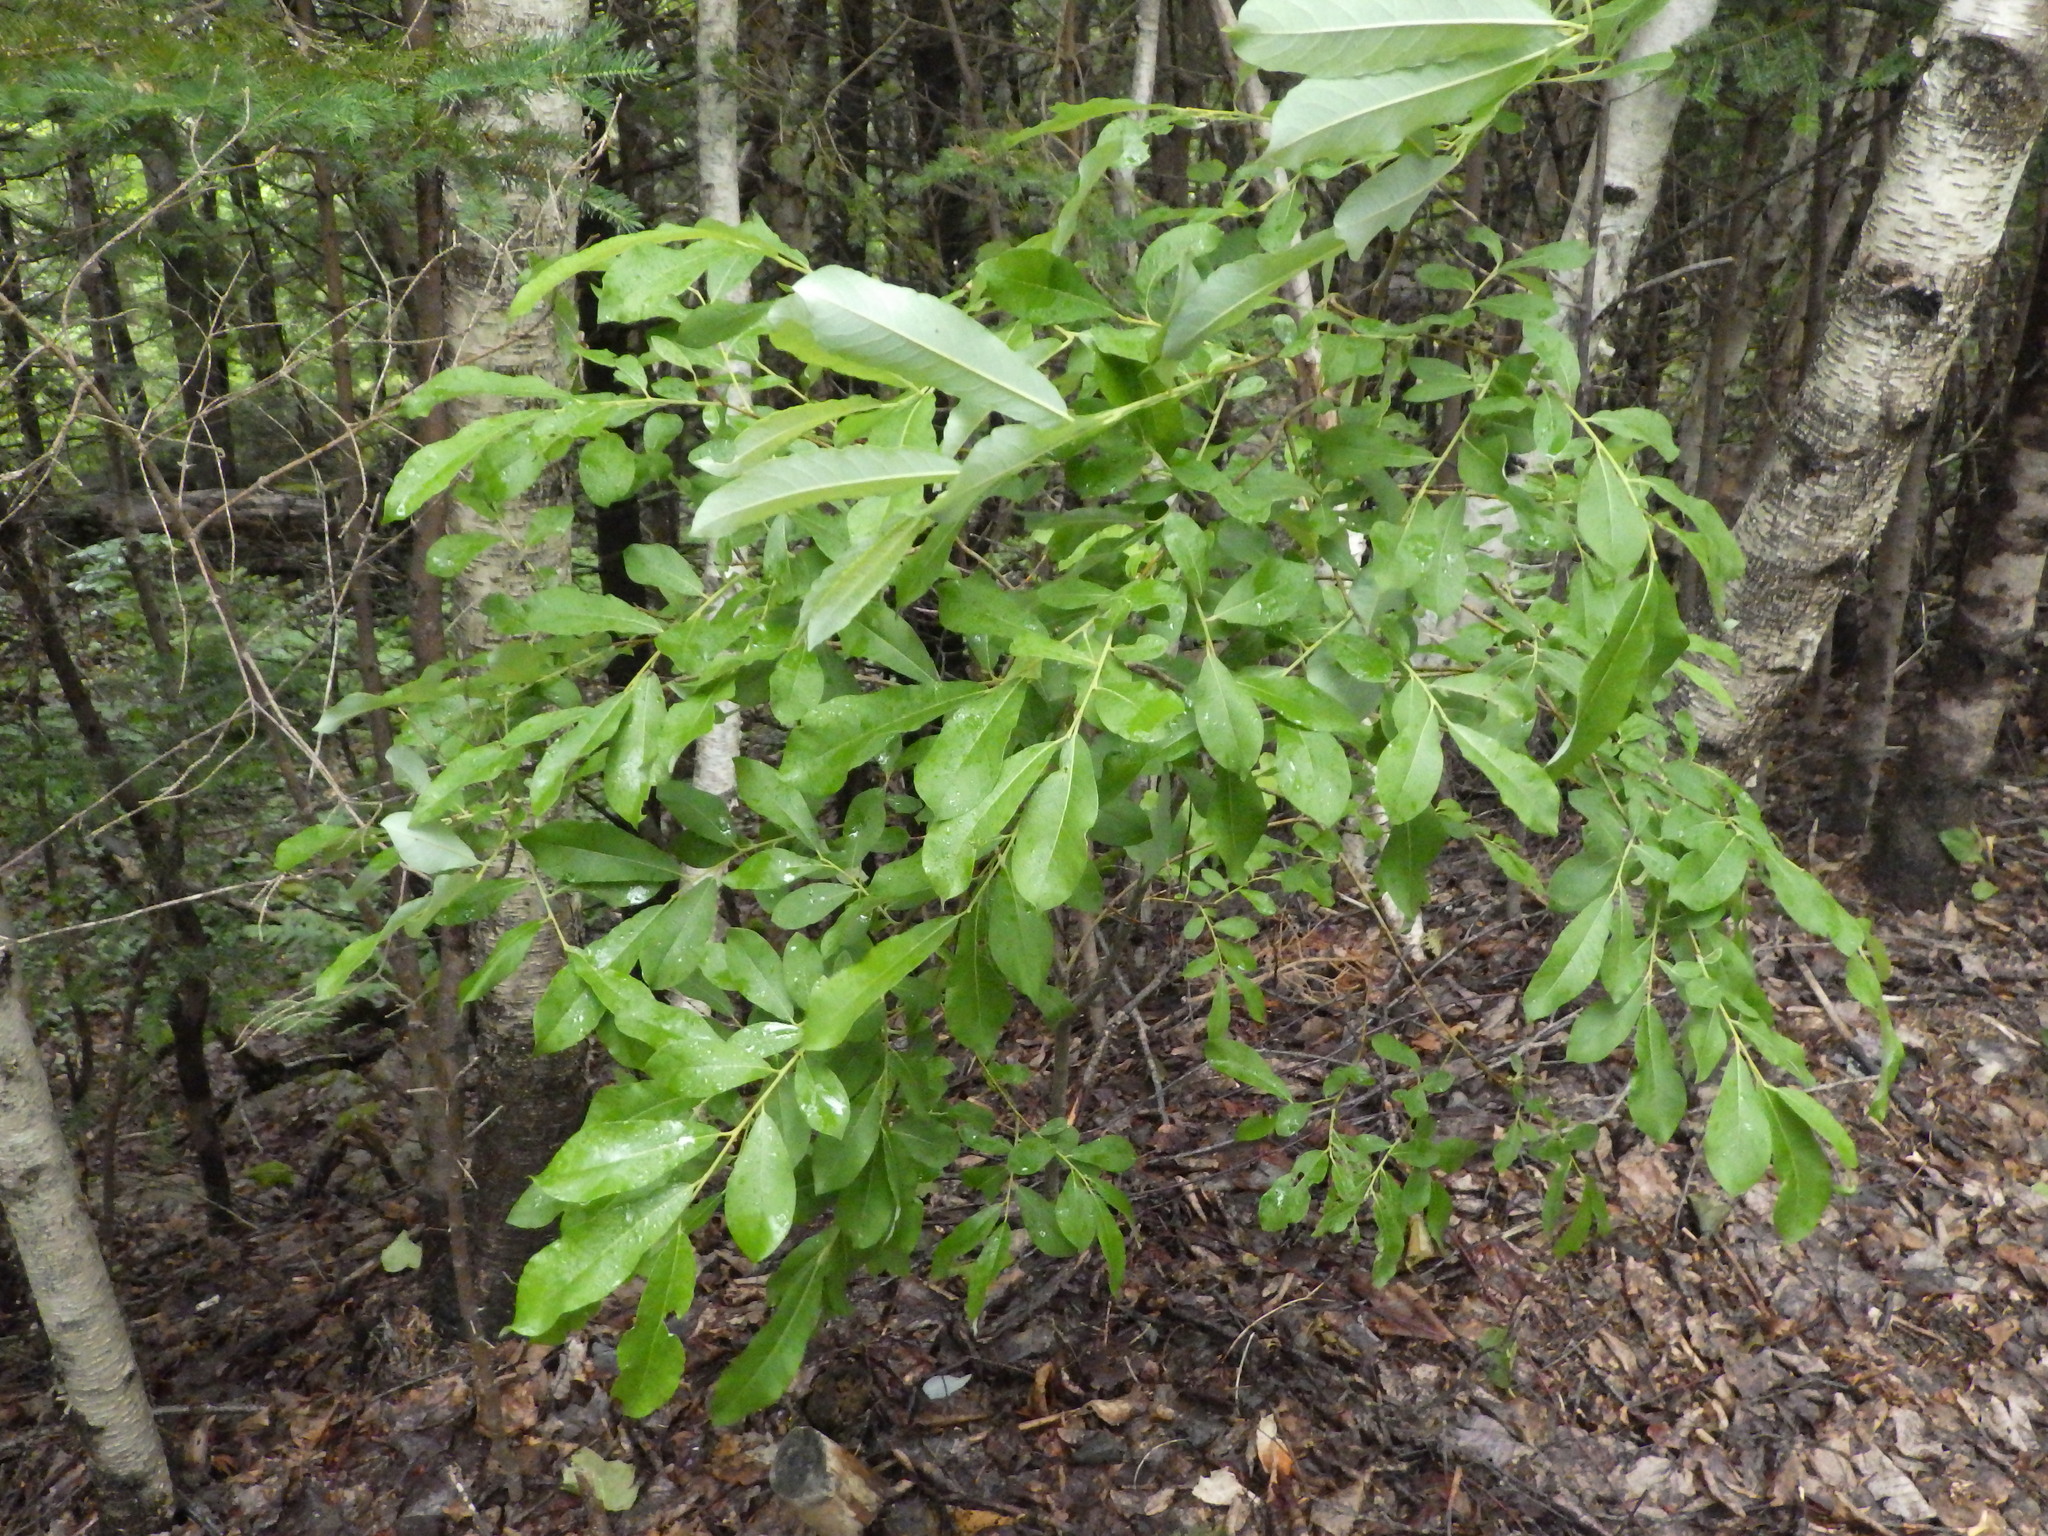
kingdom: Plantae
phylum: Tracheophyta
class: Magnoliopsida
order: Fagales
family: Myricaceae
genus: Morella
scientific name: Morella pensylvanica
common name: Northern bayberry
